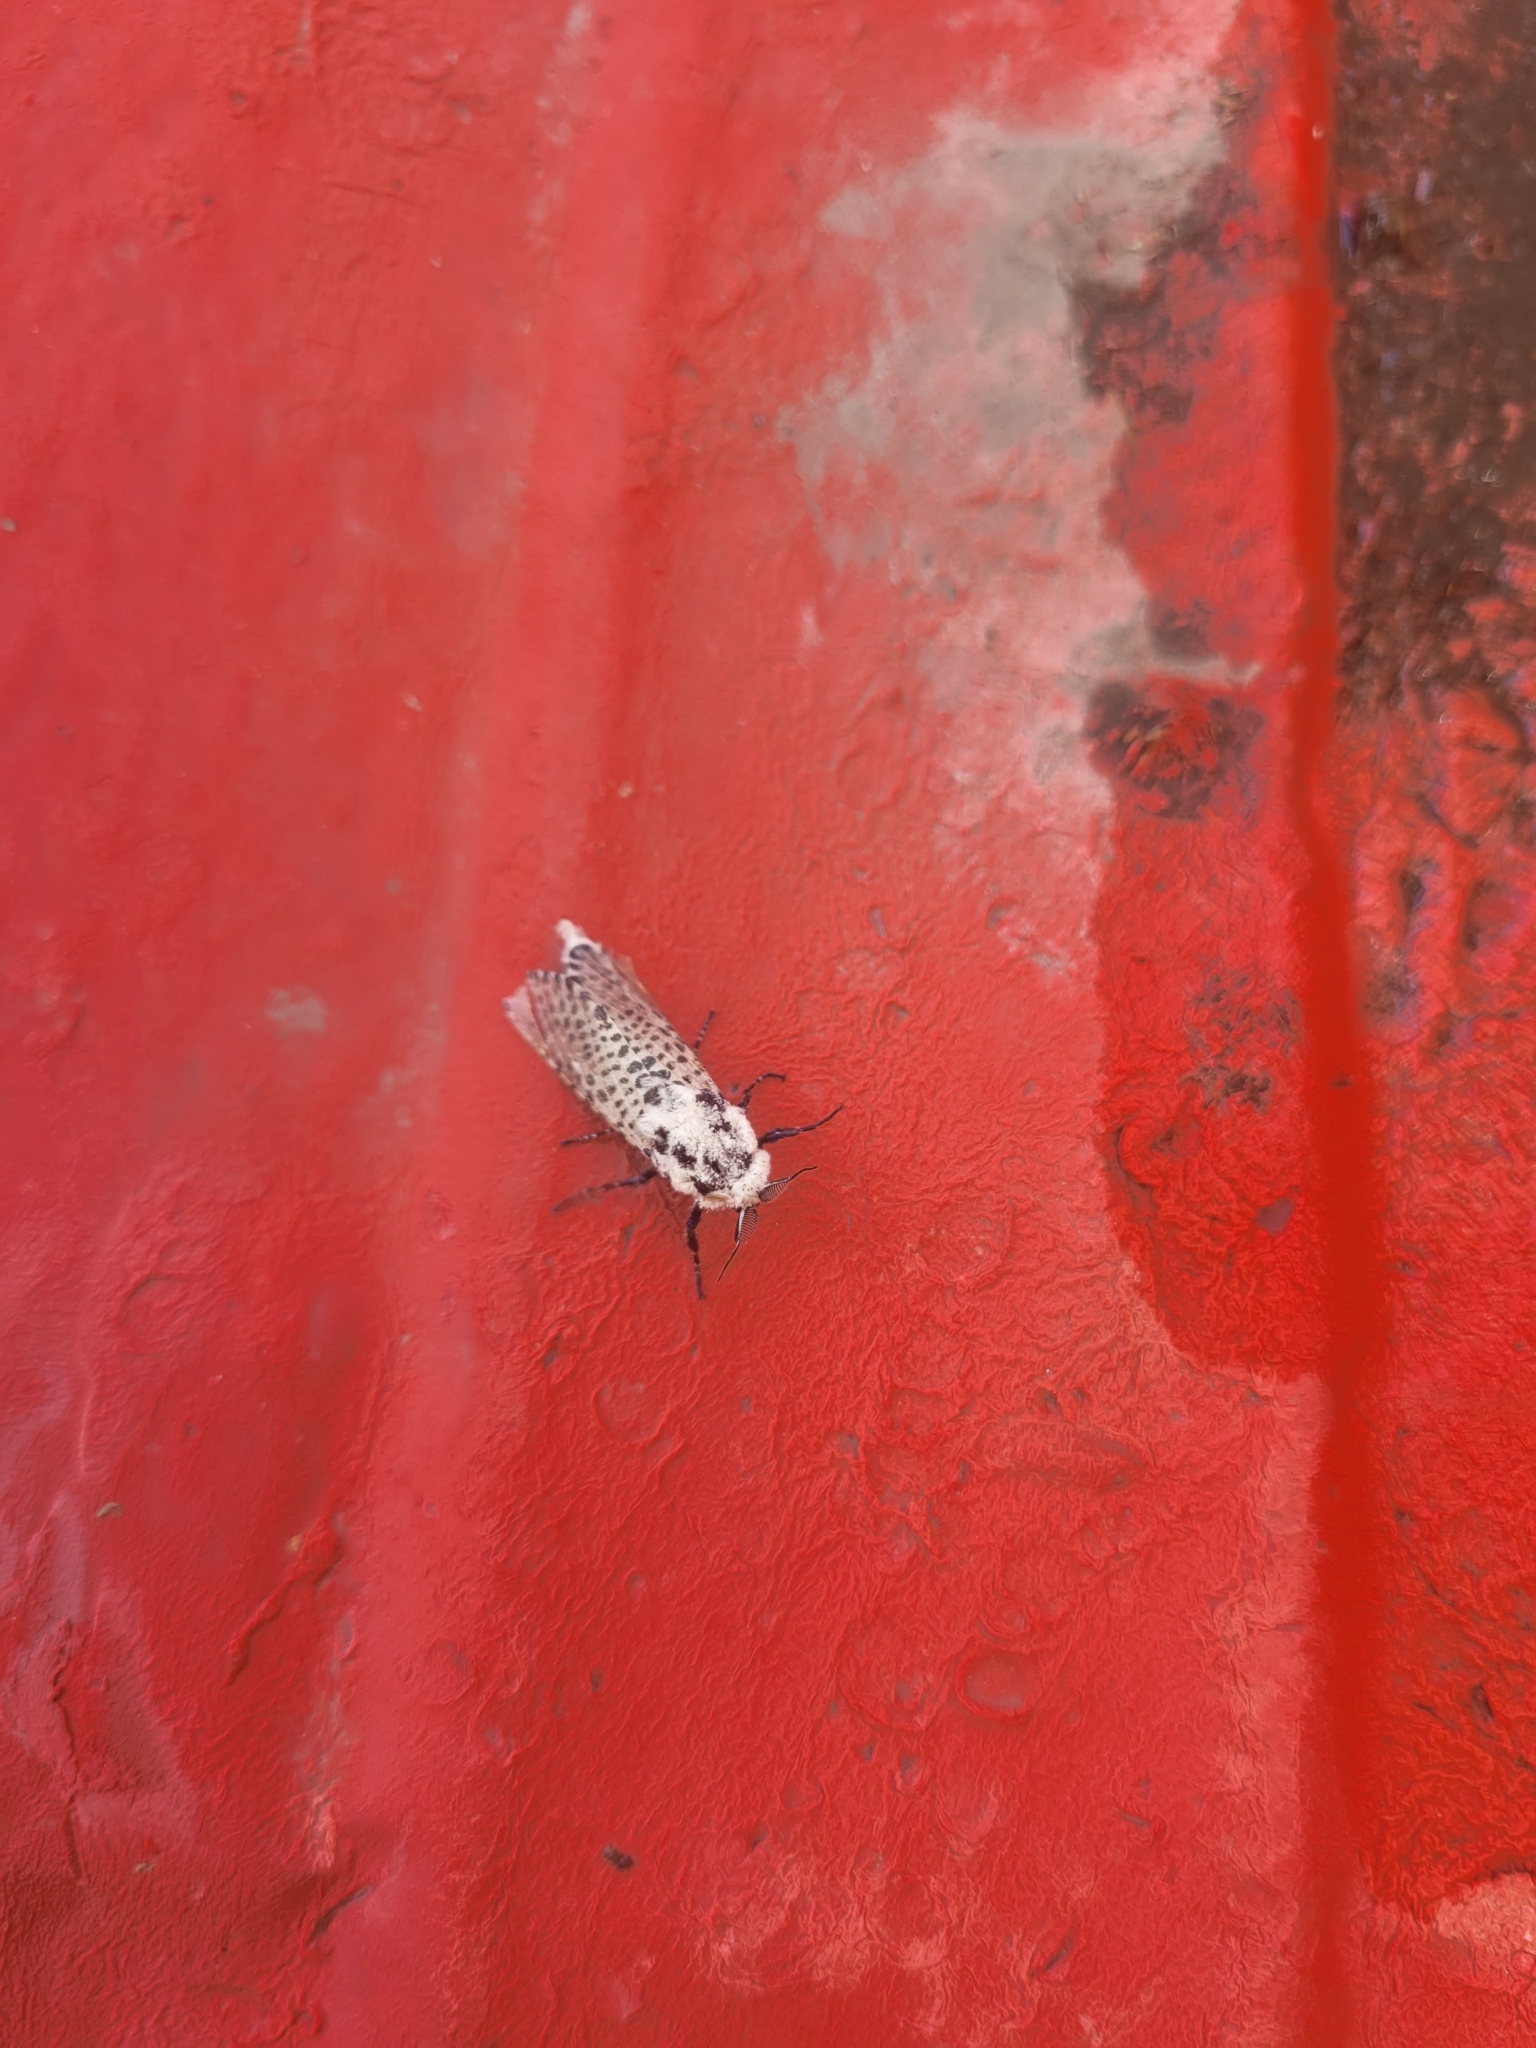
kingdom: Animalia
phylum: Arthropoda
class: Insecta
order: Lepidoptera
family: Cossidae
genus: Zeuzera
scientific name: Zeuzera pyrina
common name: Leopard moth
